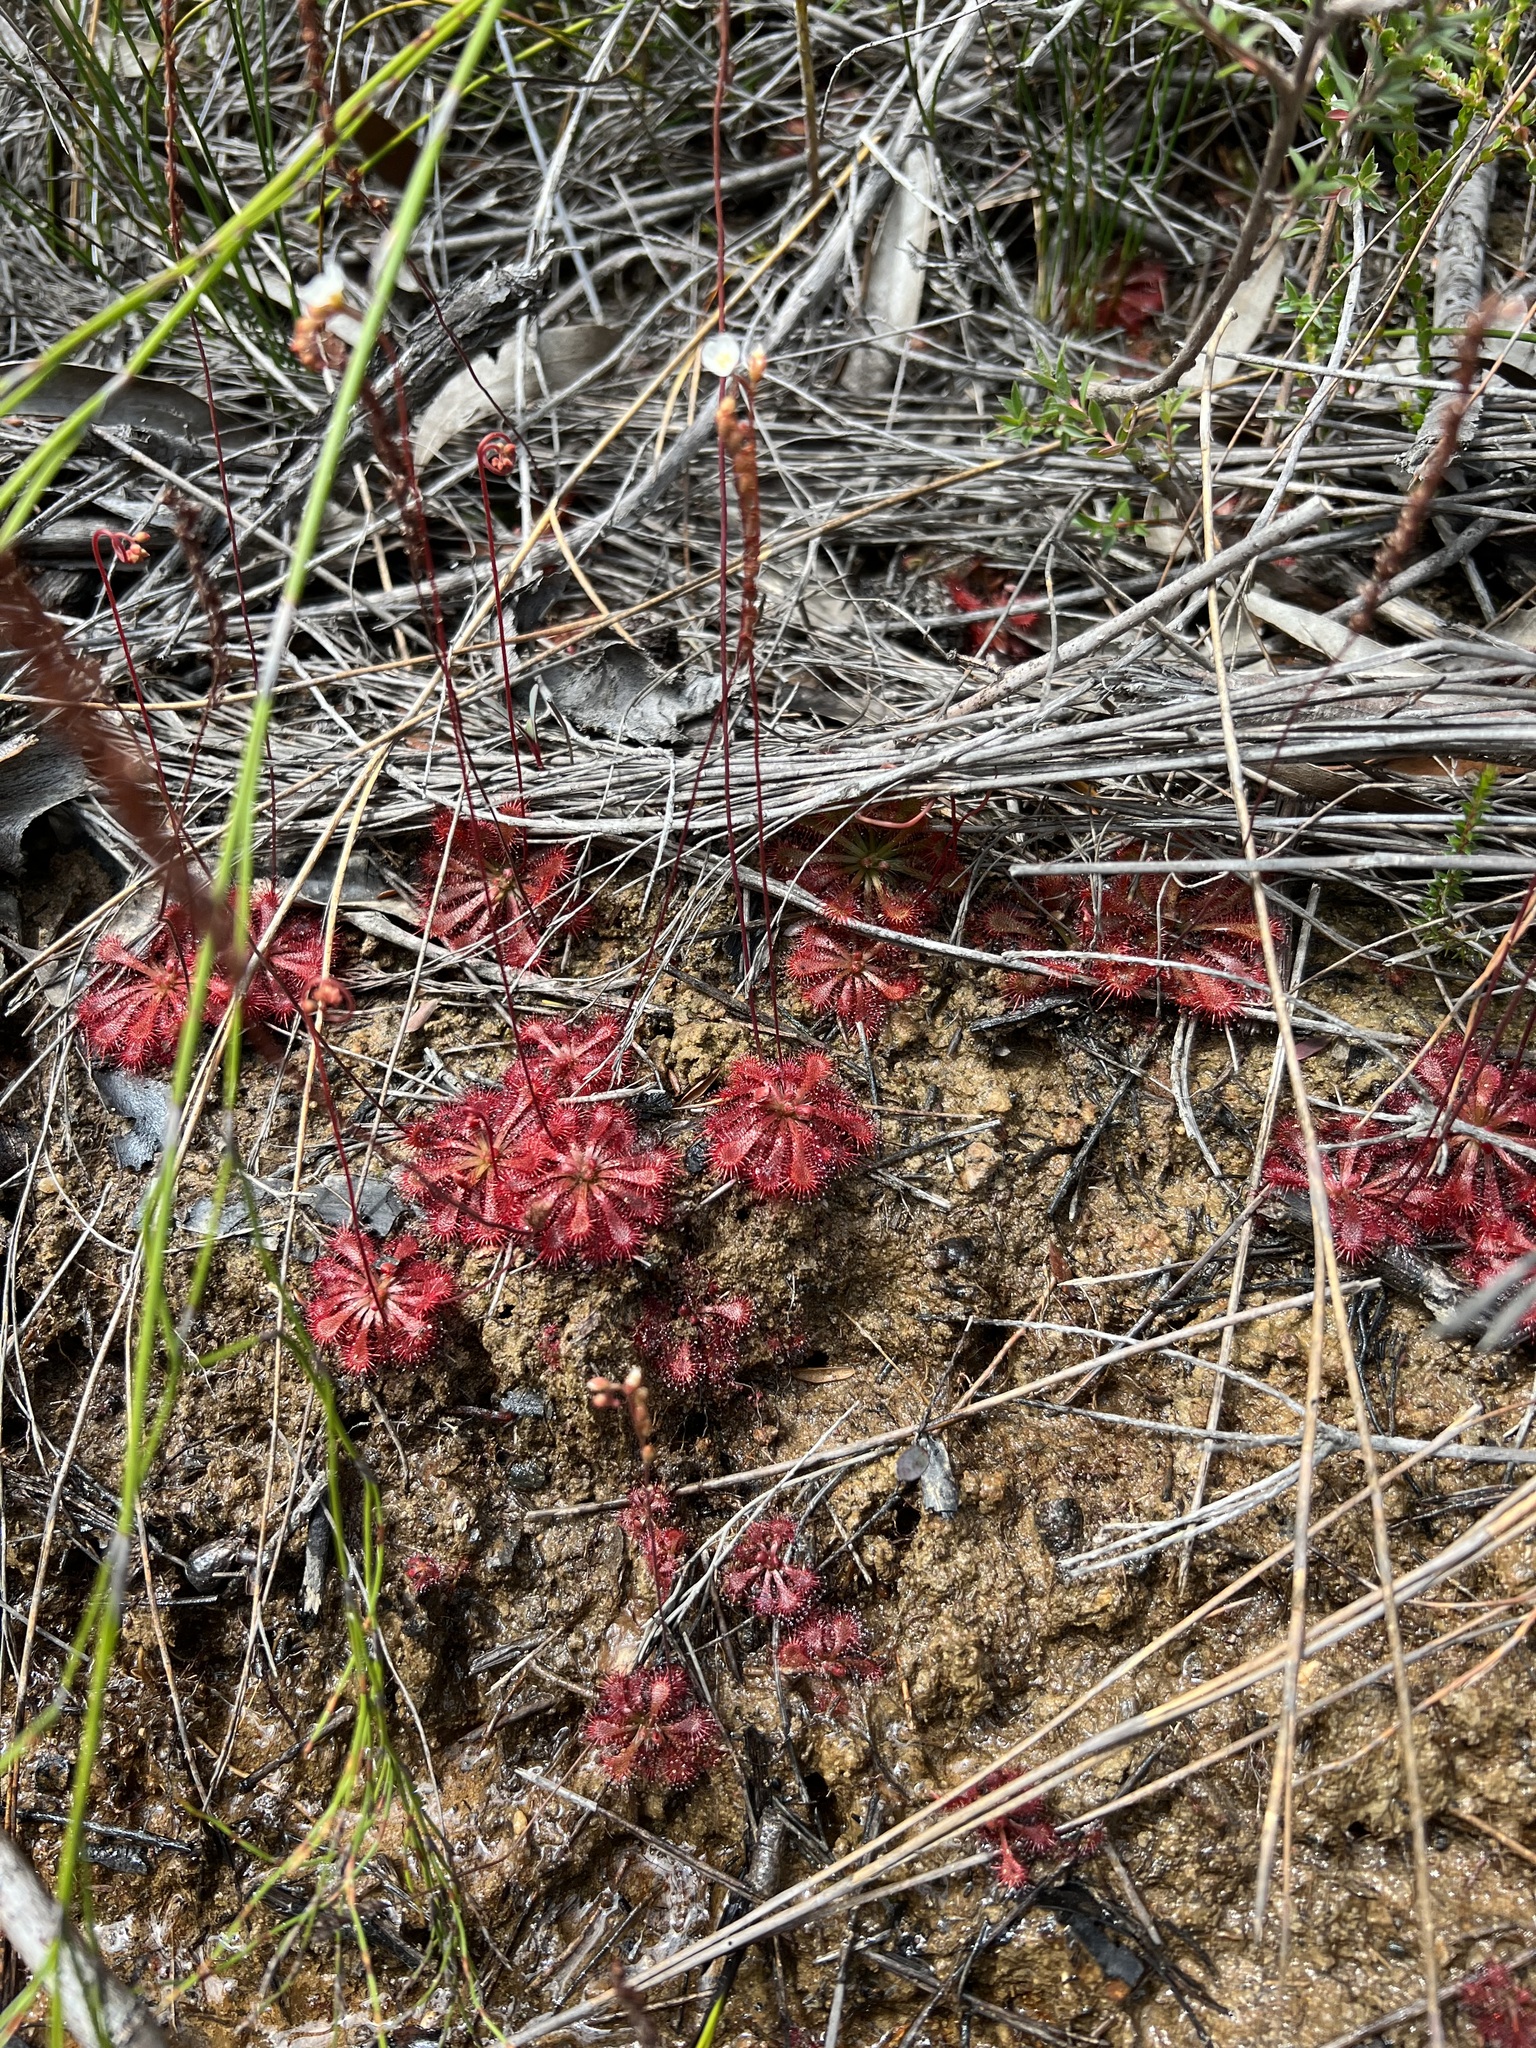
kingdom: Plantae
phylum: Tracheophyta
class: Magnoliopsida
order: Caryophyllales
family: Droseraceae
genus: Drosera
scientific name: Drosera spatulata
